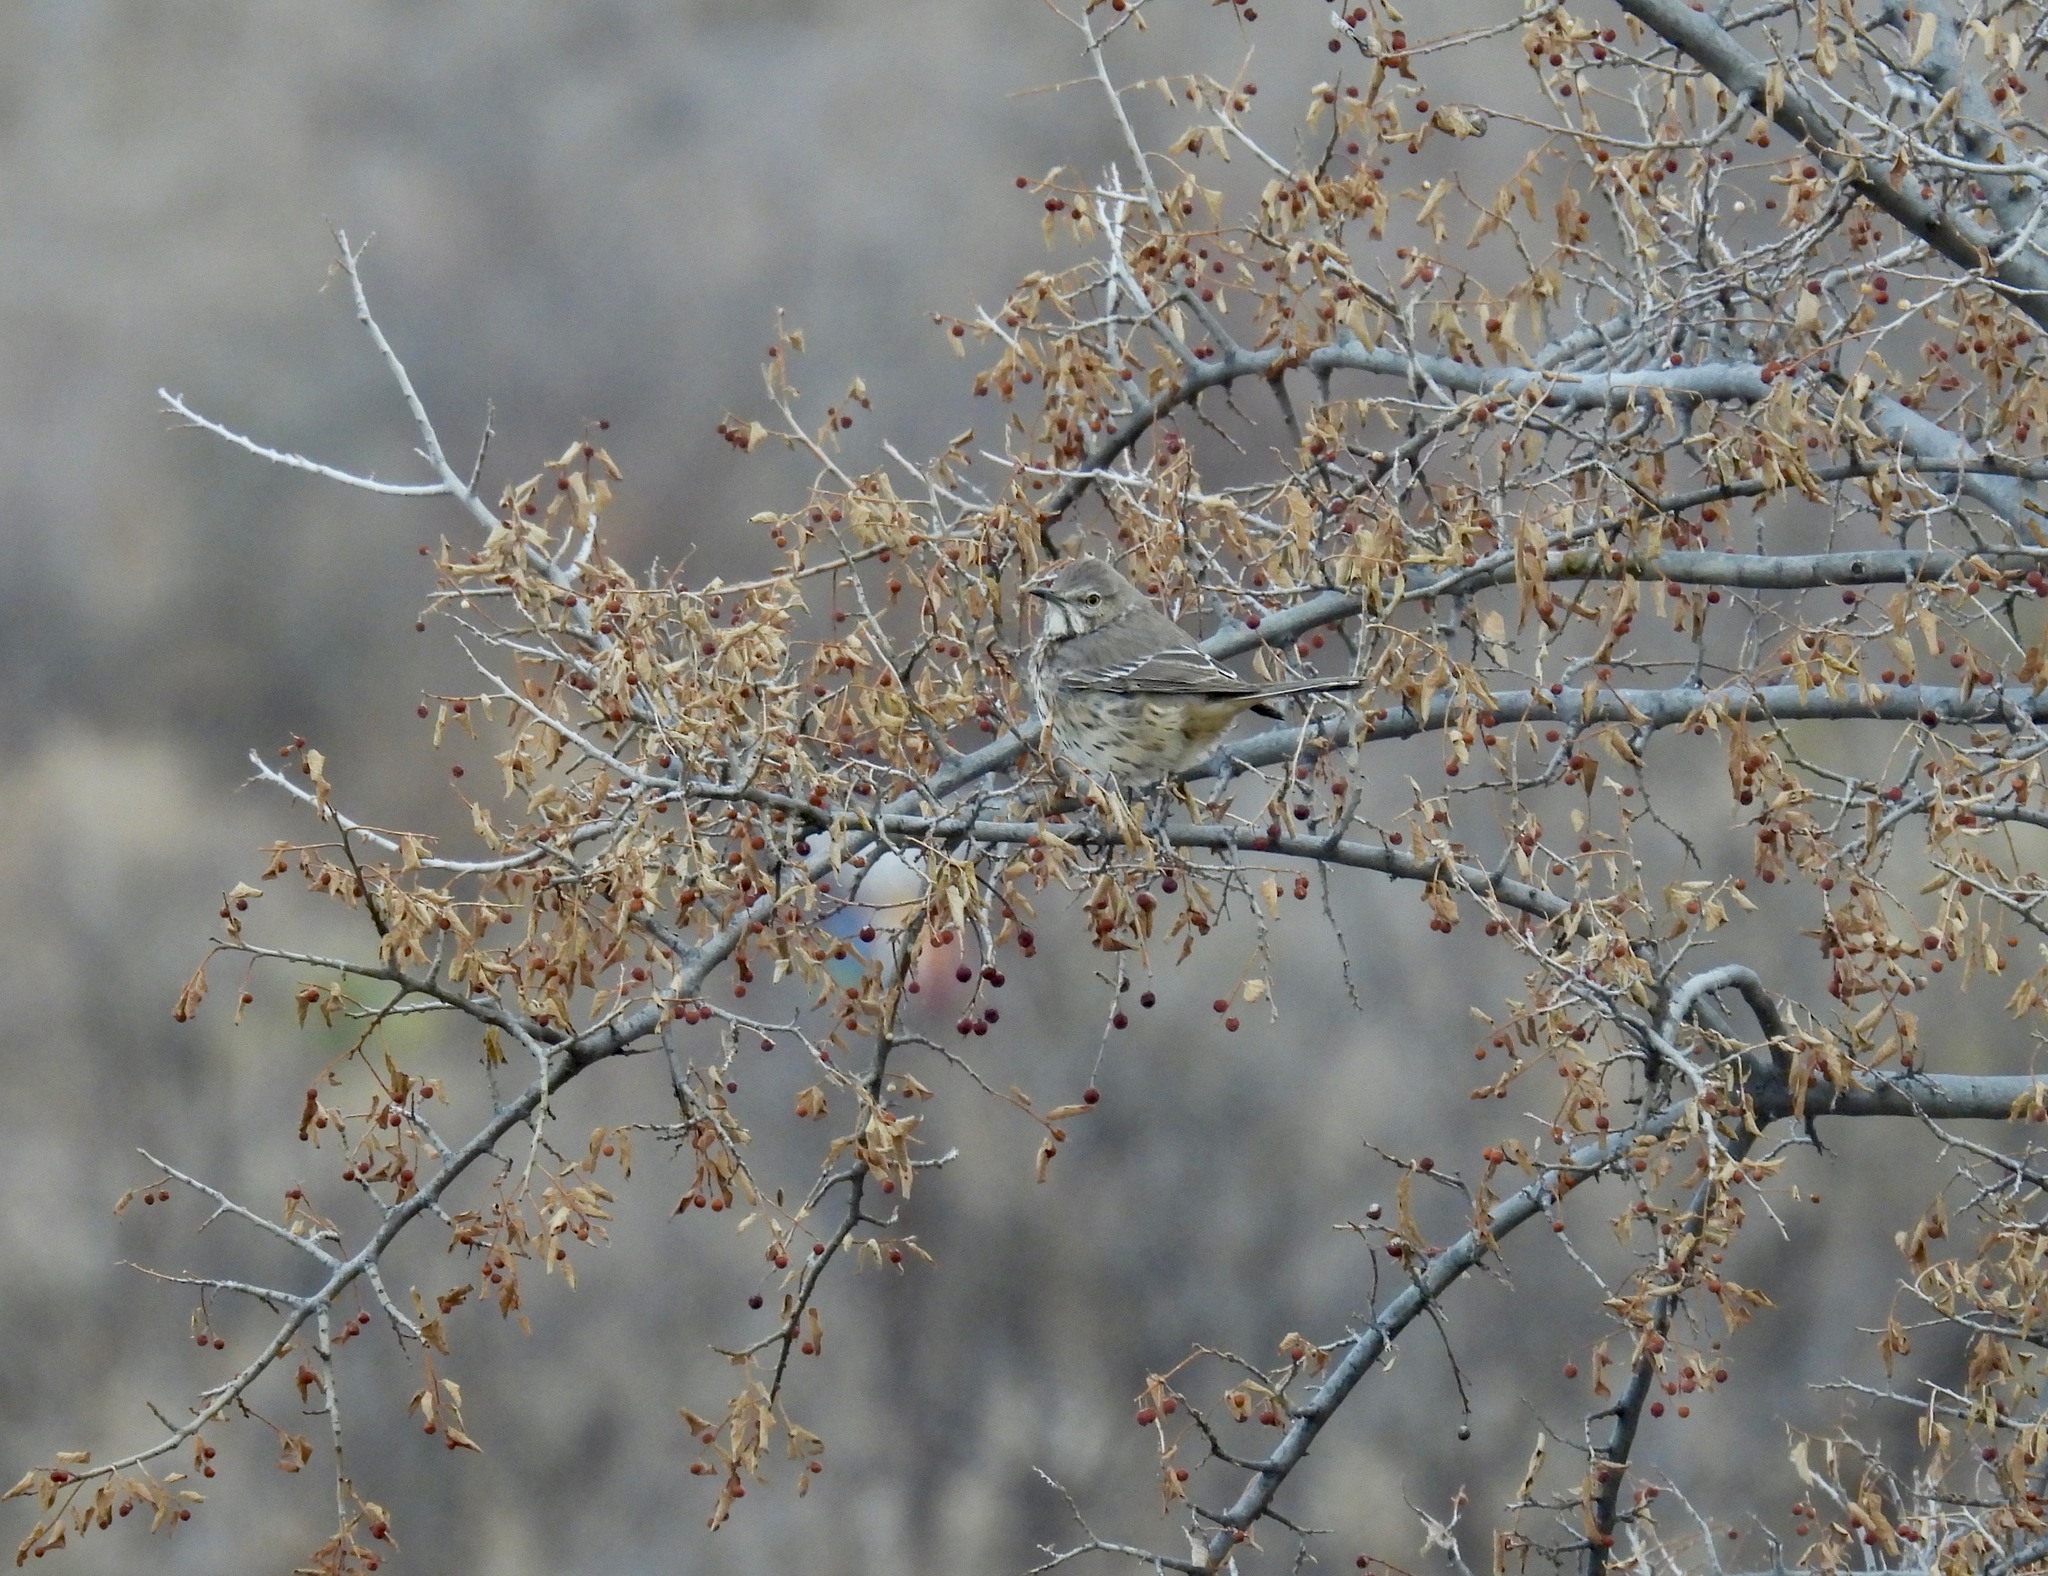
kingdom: Animalia
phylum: Chordata
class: Aves
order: Passeriformes
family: Mimidae
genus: Oreoscoptes
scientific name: Oreoscoptes montanus
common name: Sage thrasher
